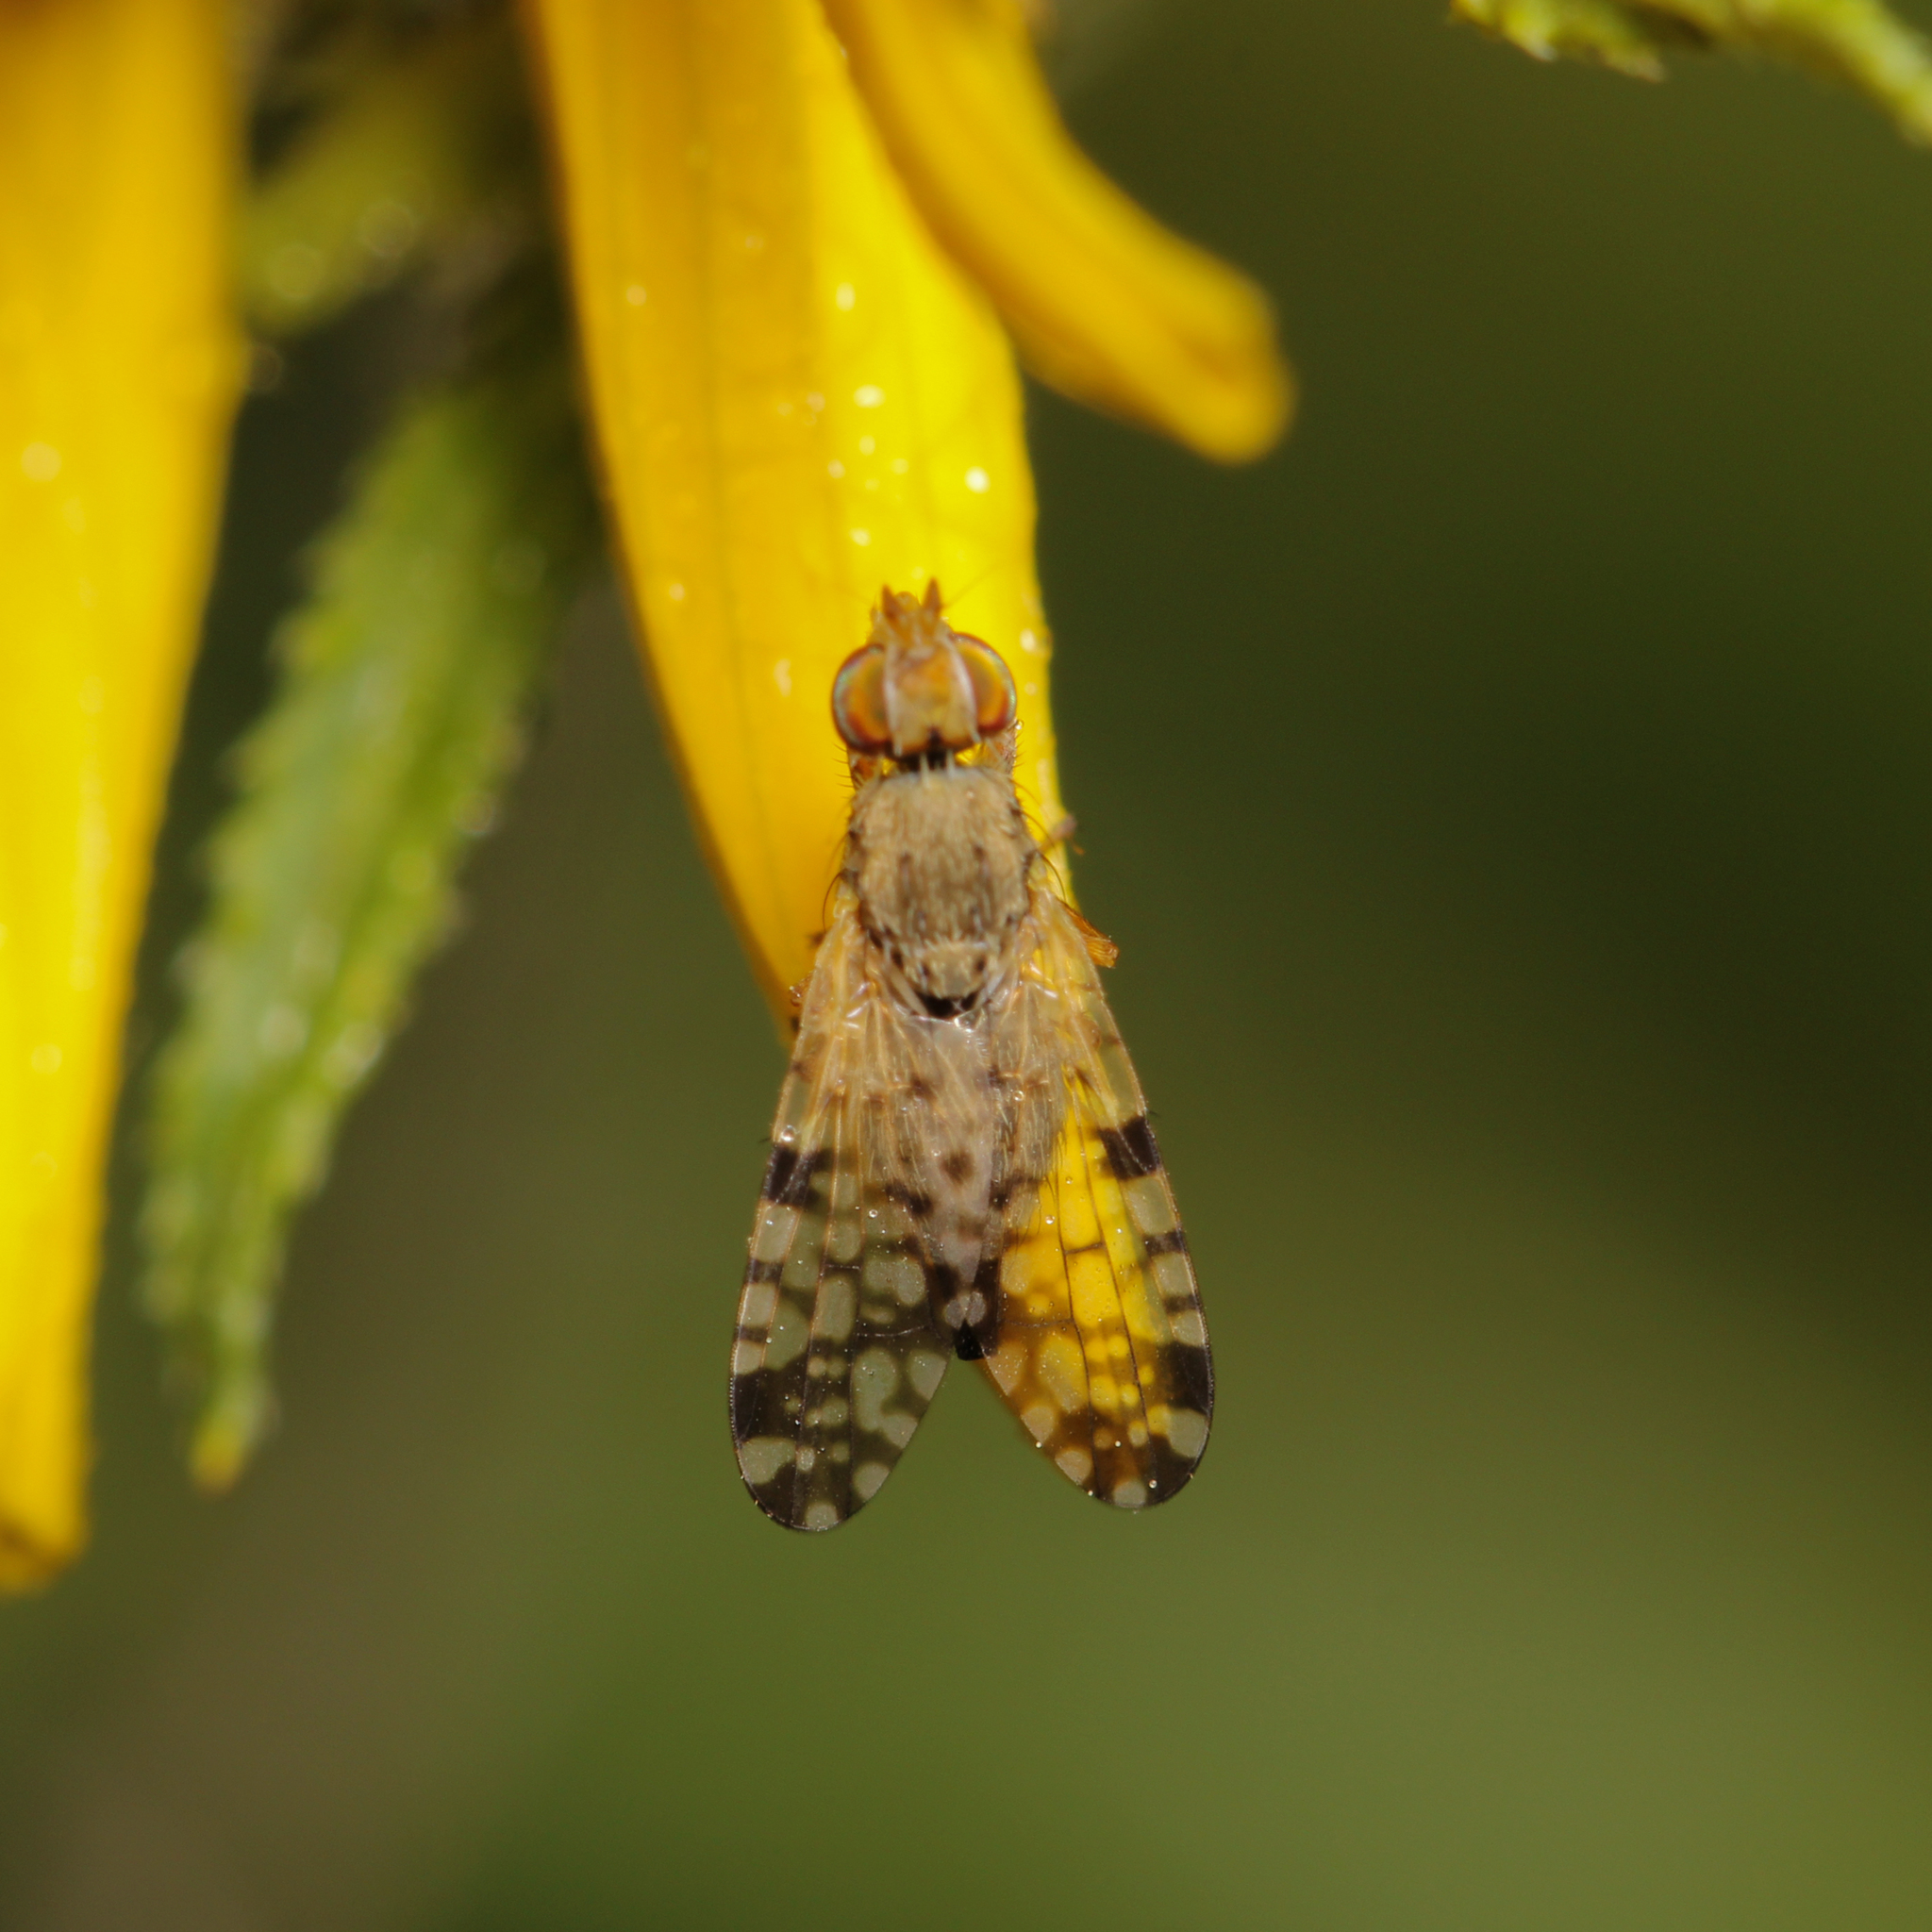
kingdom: Animalia
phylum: Arthropoda
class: Insecta
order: Diptera
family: Tephritidae
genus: Dioxyna
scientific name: Dioxyna picciola
